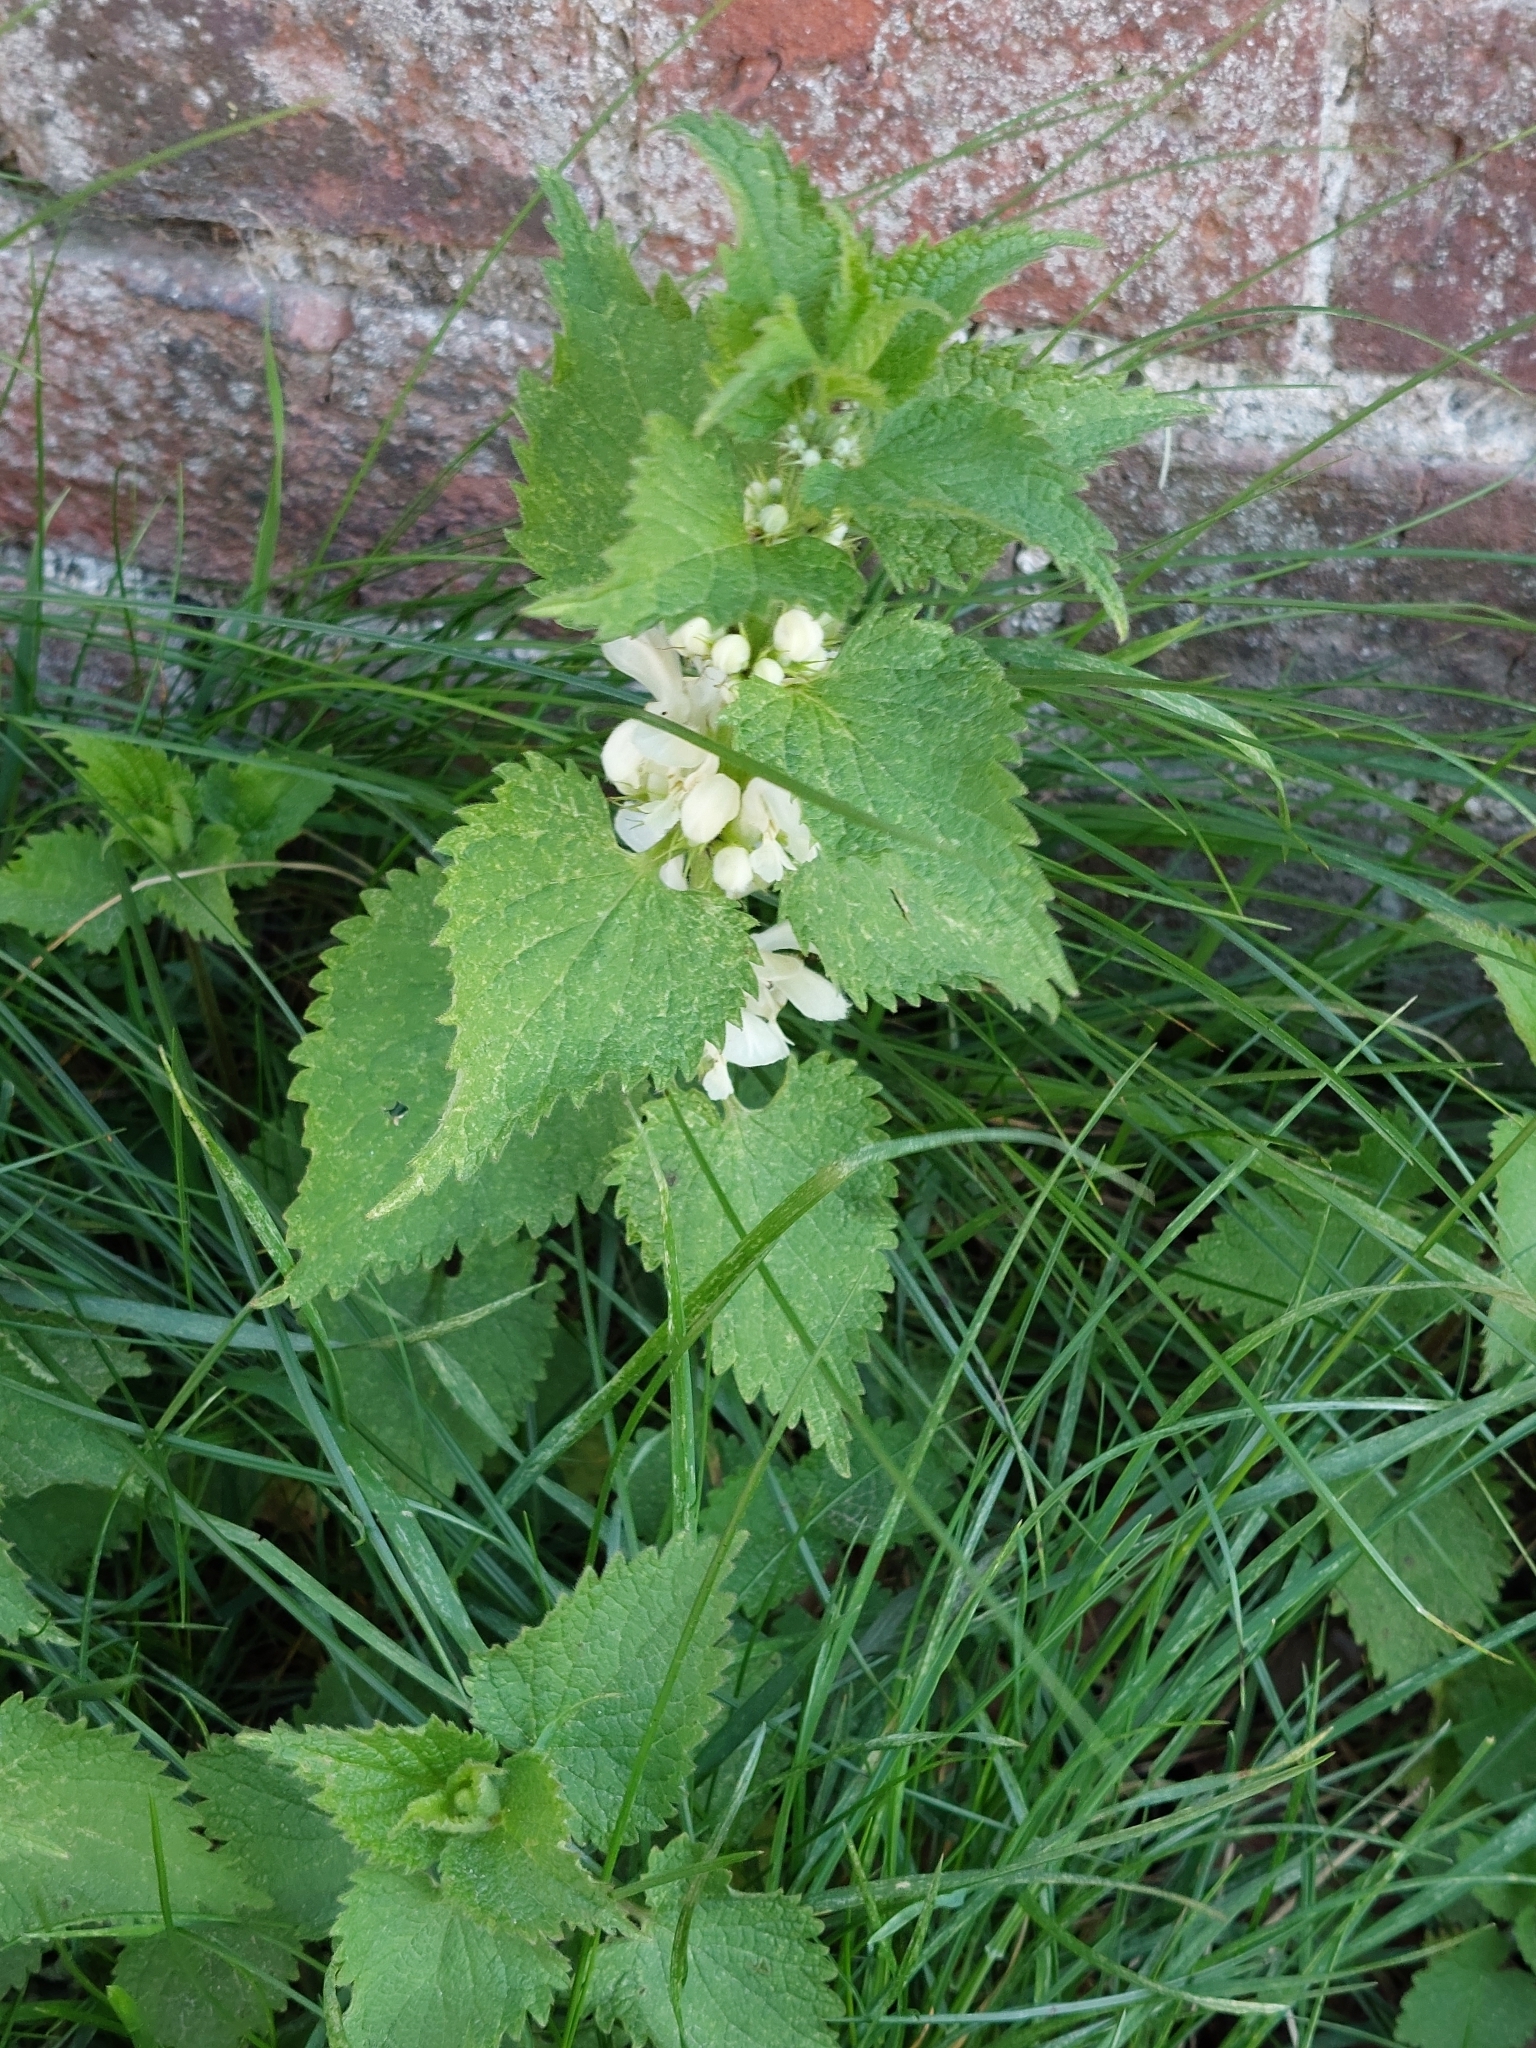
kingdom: Plantae
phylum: Tracheophyta
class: Magnoliopsida
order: Lamiales
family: Lamiaceae
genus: Lamium
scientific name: Lamium album
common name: White dead-nettle
